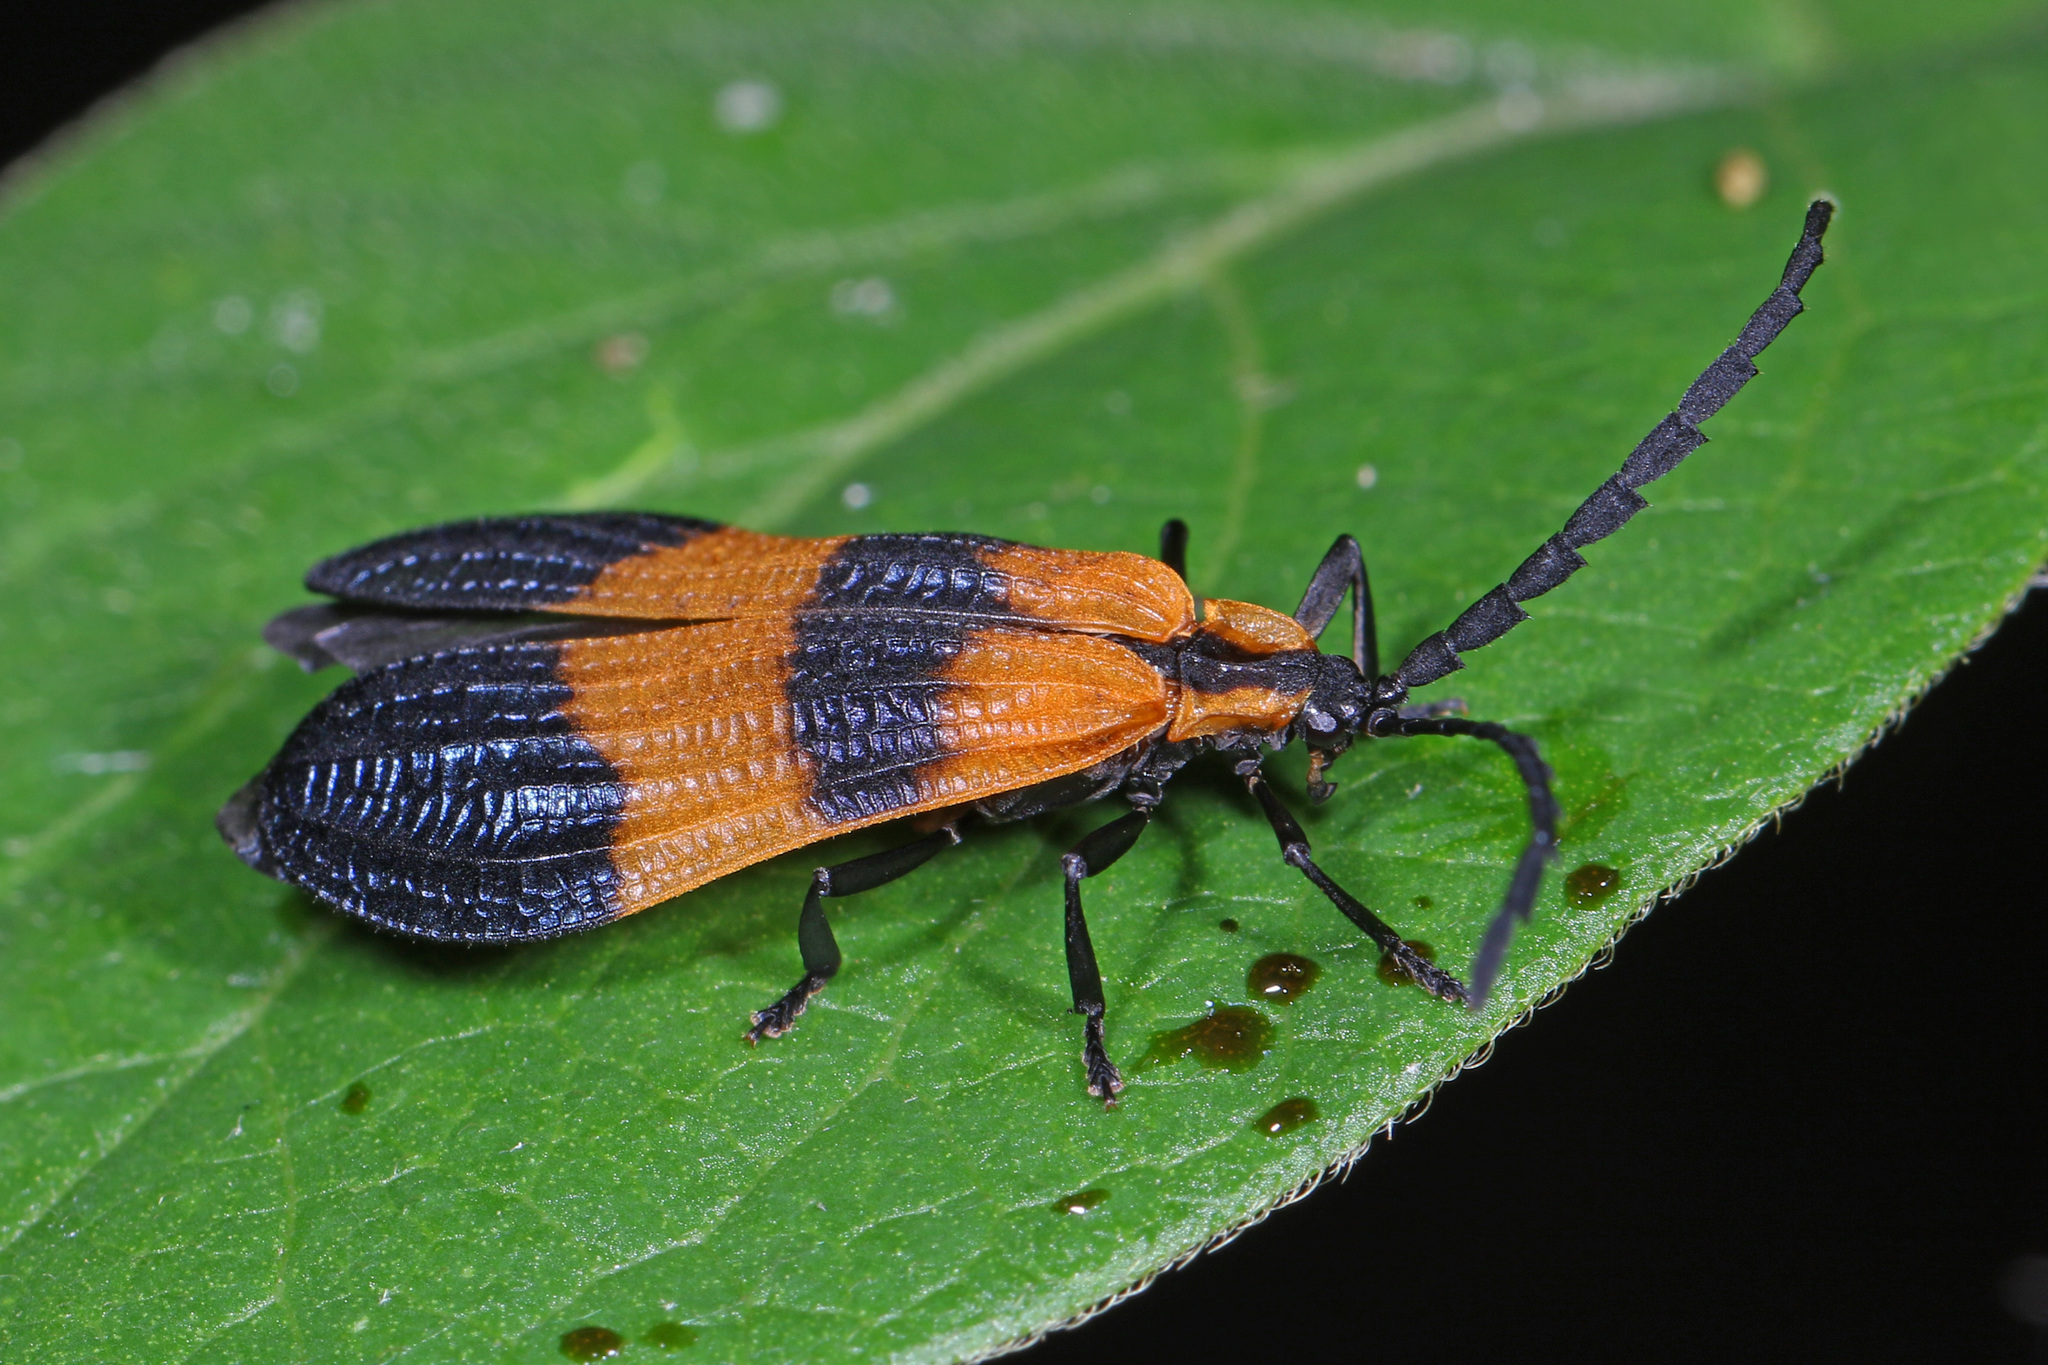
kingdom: Animalia
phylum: Arthropoda
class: Insecta
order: Coleoptera
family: Lycidae
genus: Calopteron
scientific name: Calopteron terminale
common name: End band net-winged beetle
